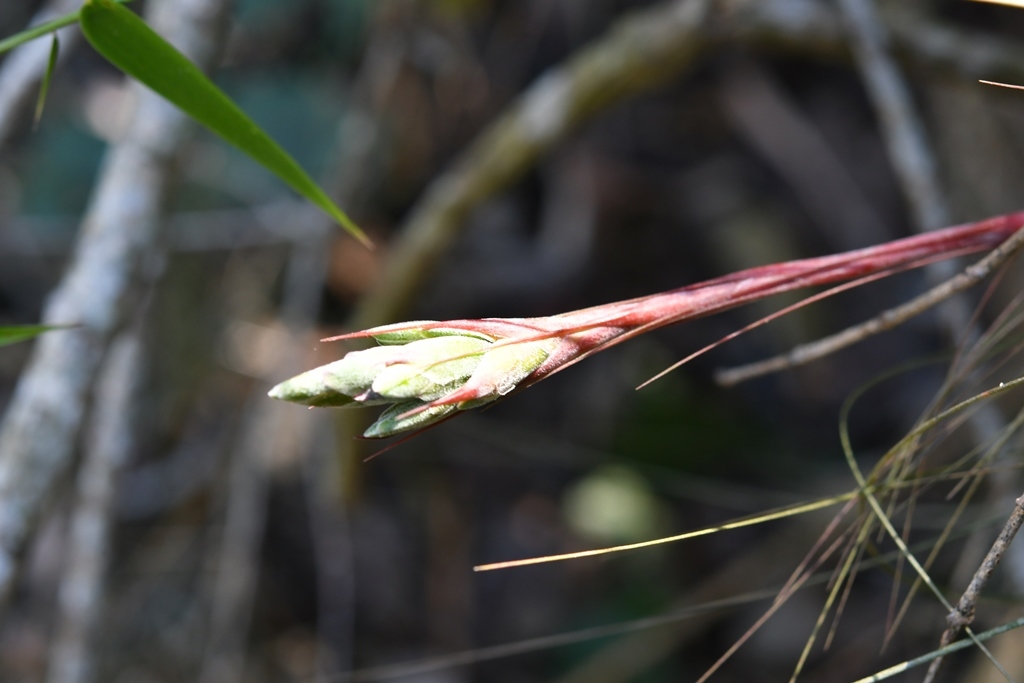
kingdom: Plantae
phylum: Tracheophyta
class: Liliopsida
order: Poales
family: Bromeliaceae
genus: Tillandsia
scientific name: Tillandsia juncea
